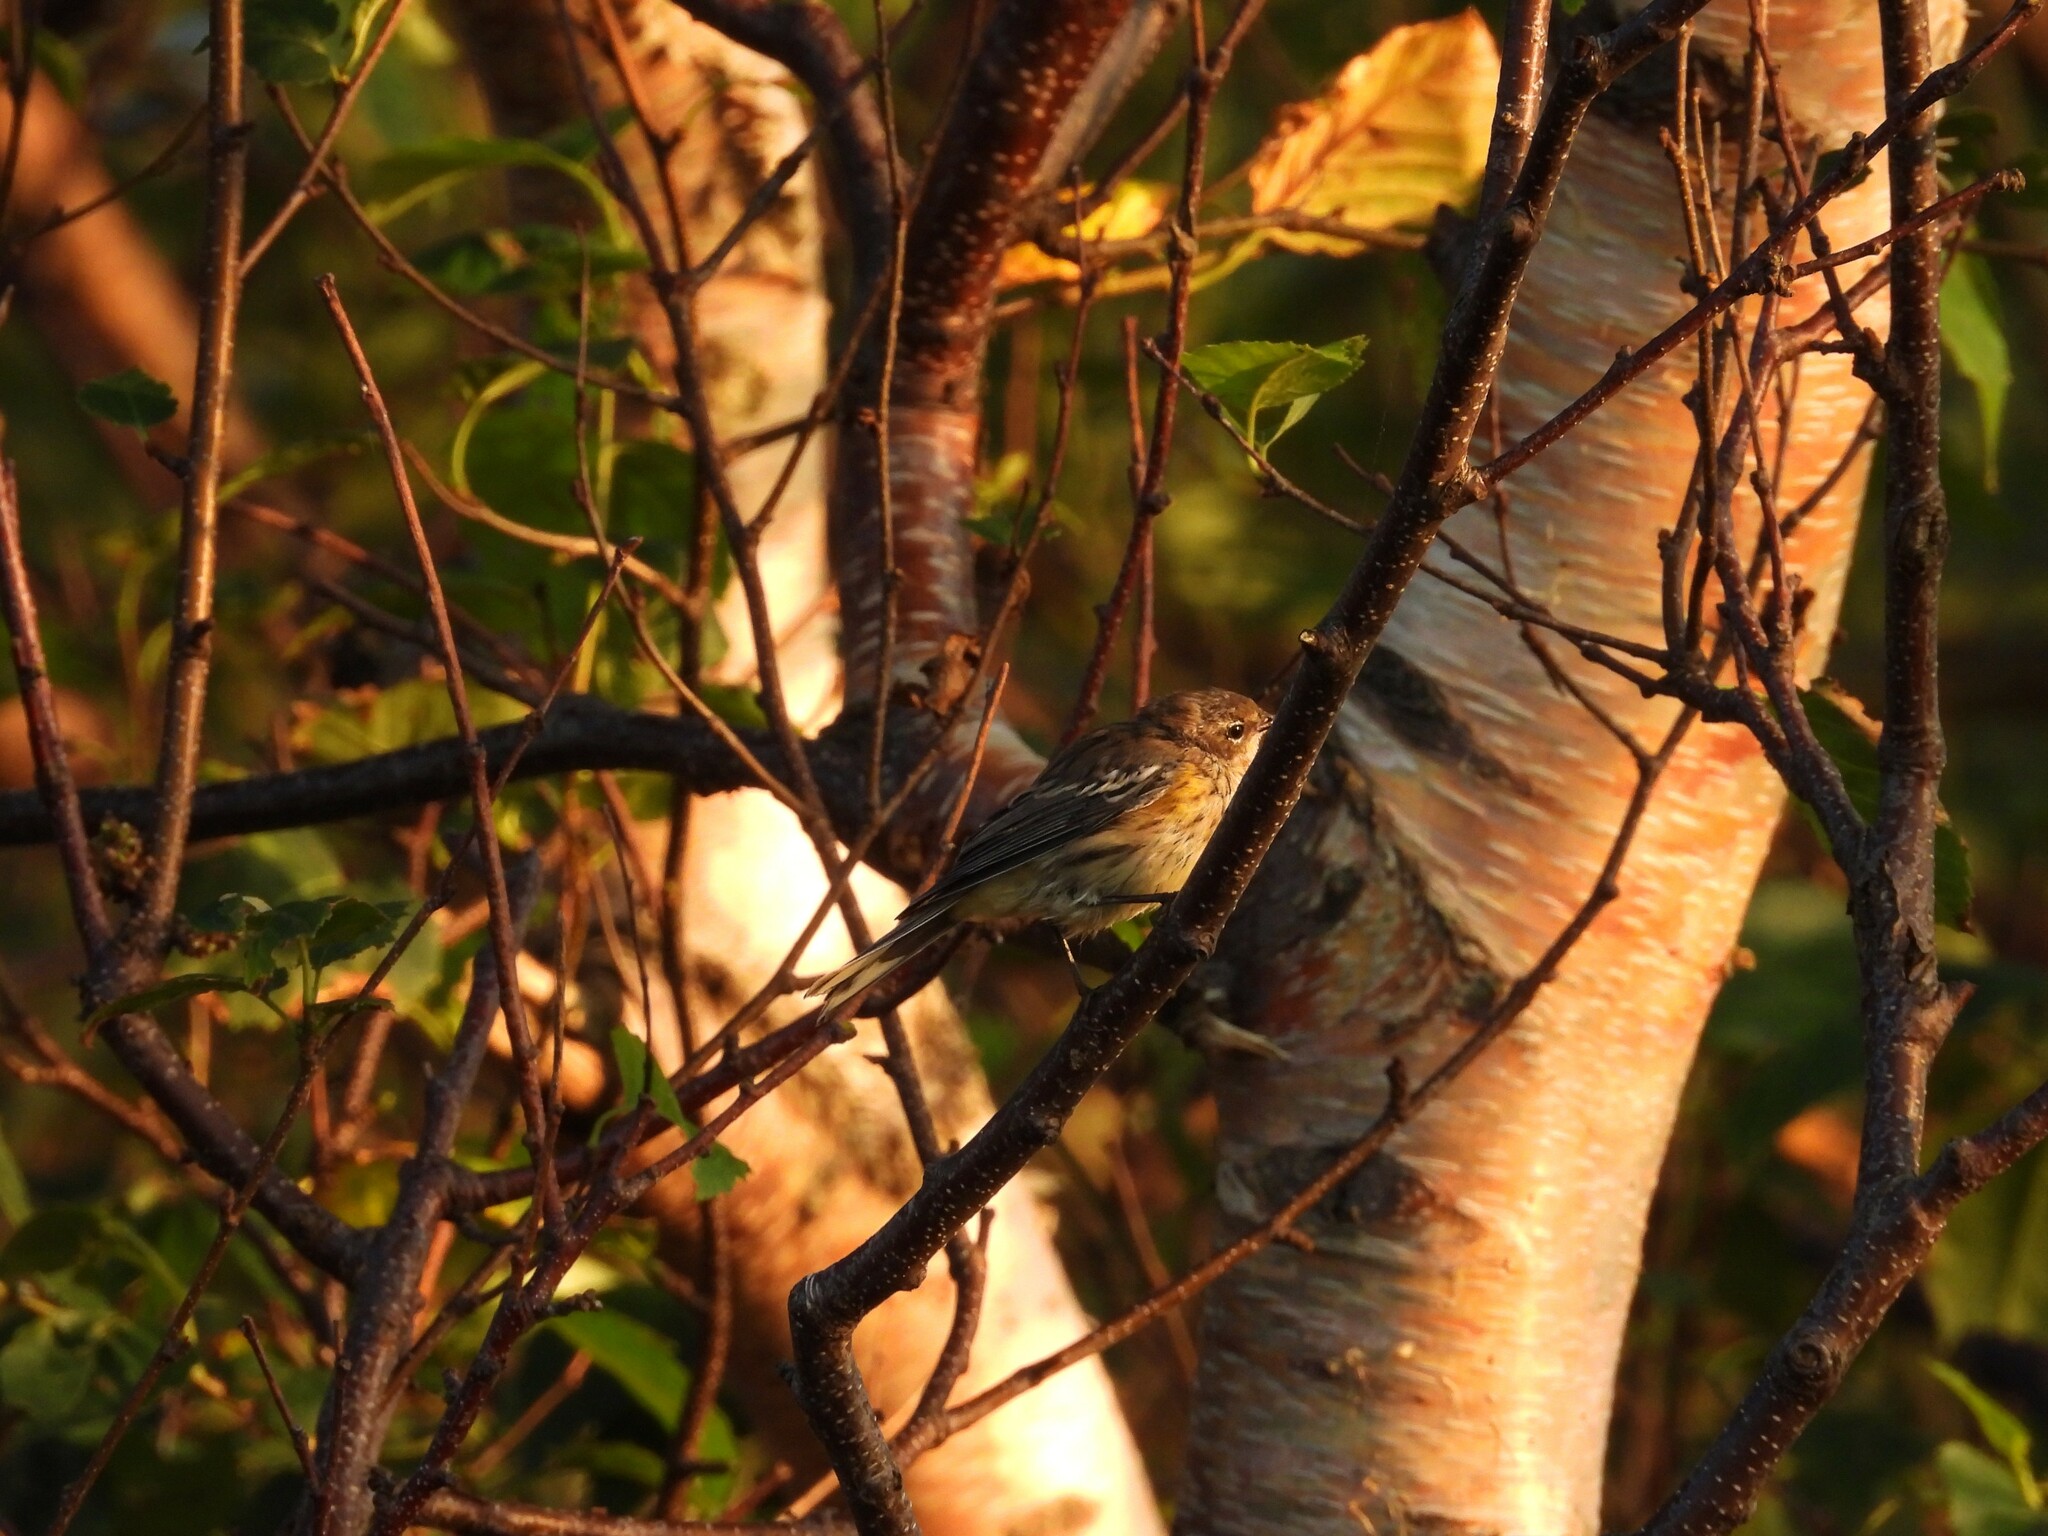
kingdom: Animalia
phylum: Chordata
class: Aves
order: Passeriformes
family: Parulidae
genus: Setophaga
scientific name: Setophaga coronata
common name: Myrtle warbler
